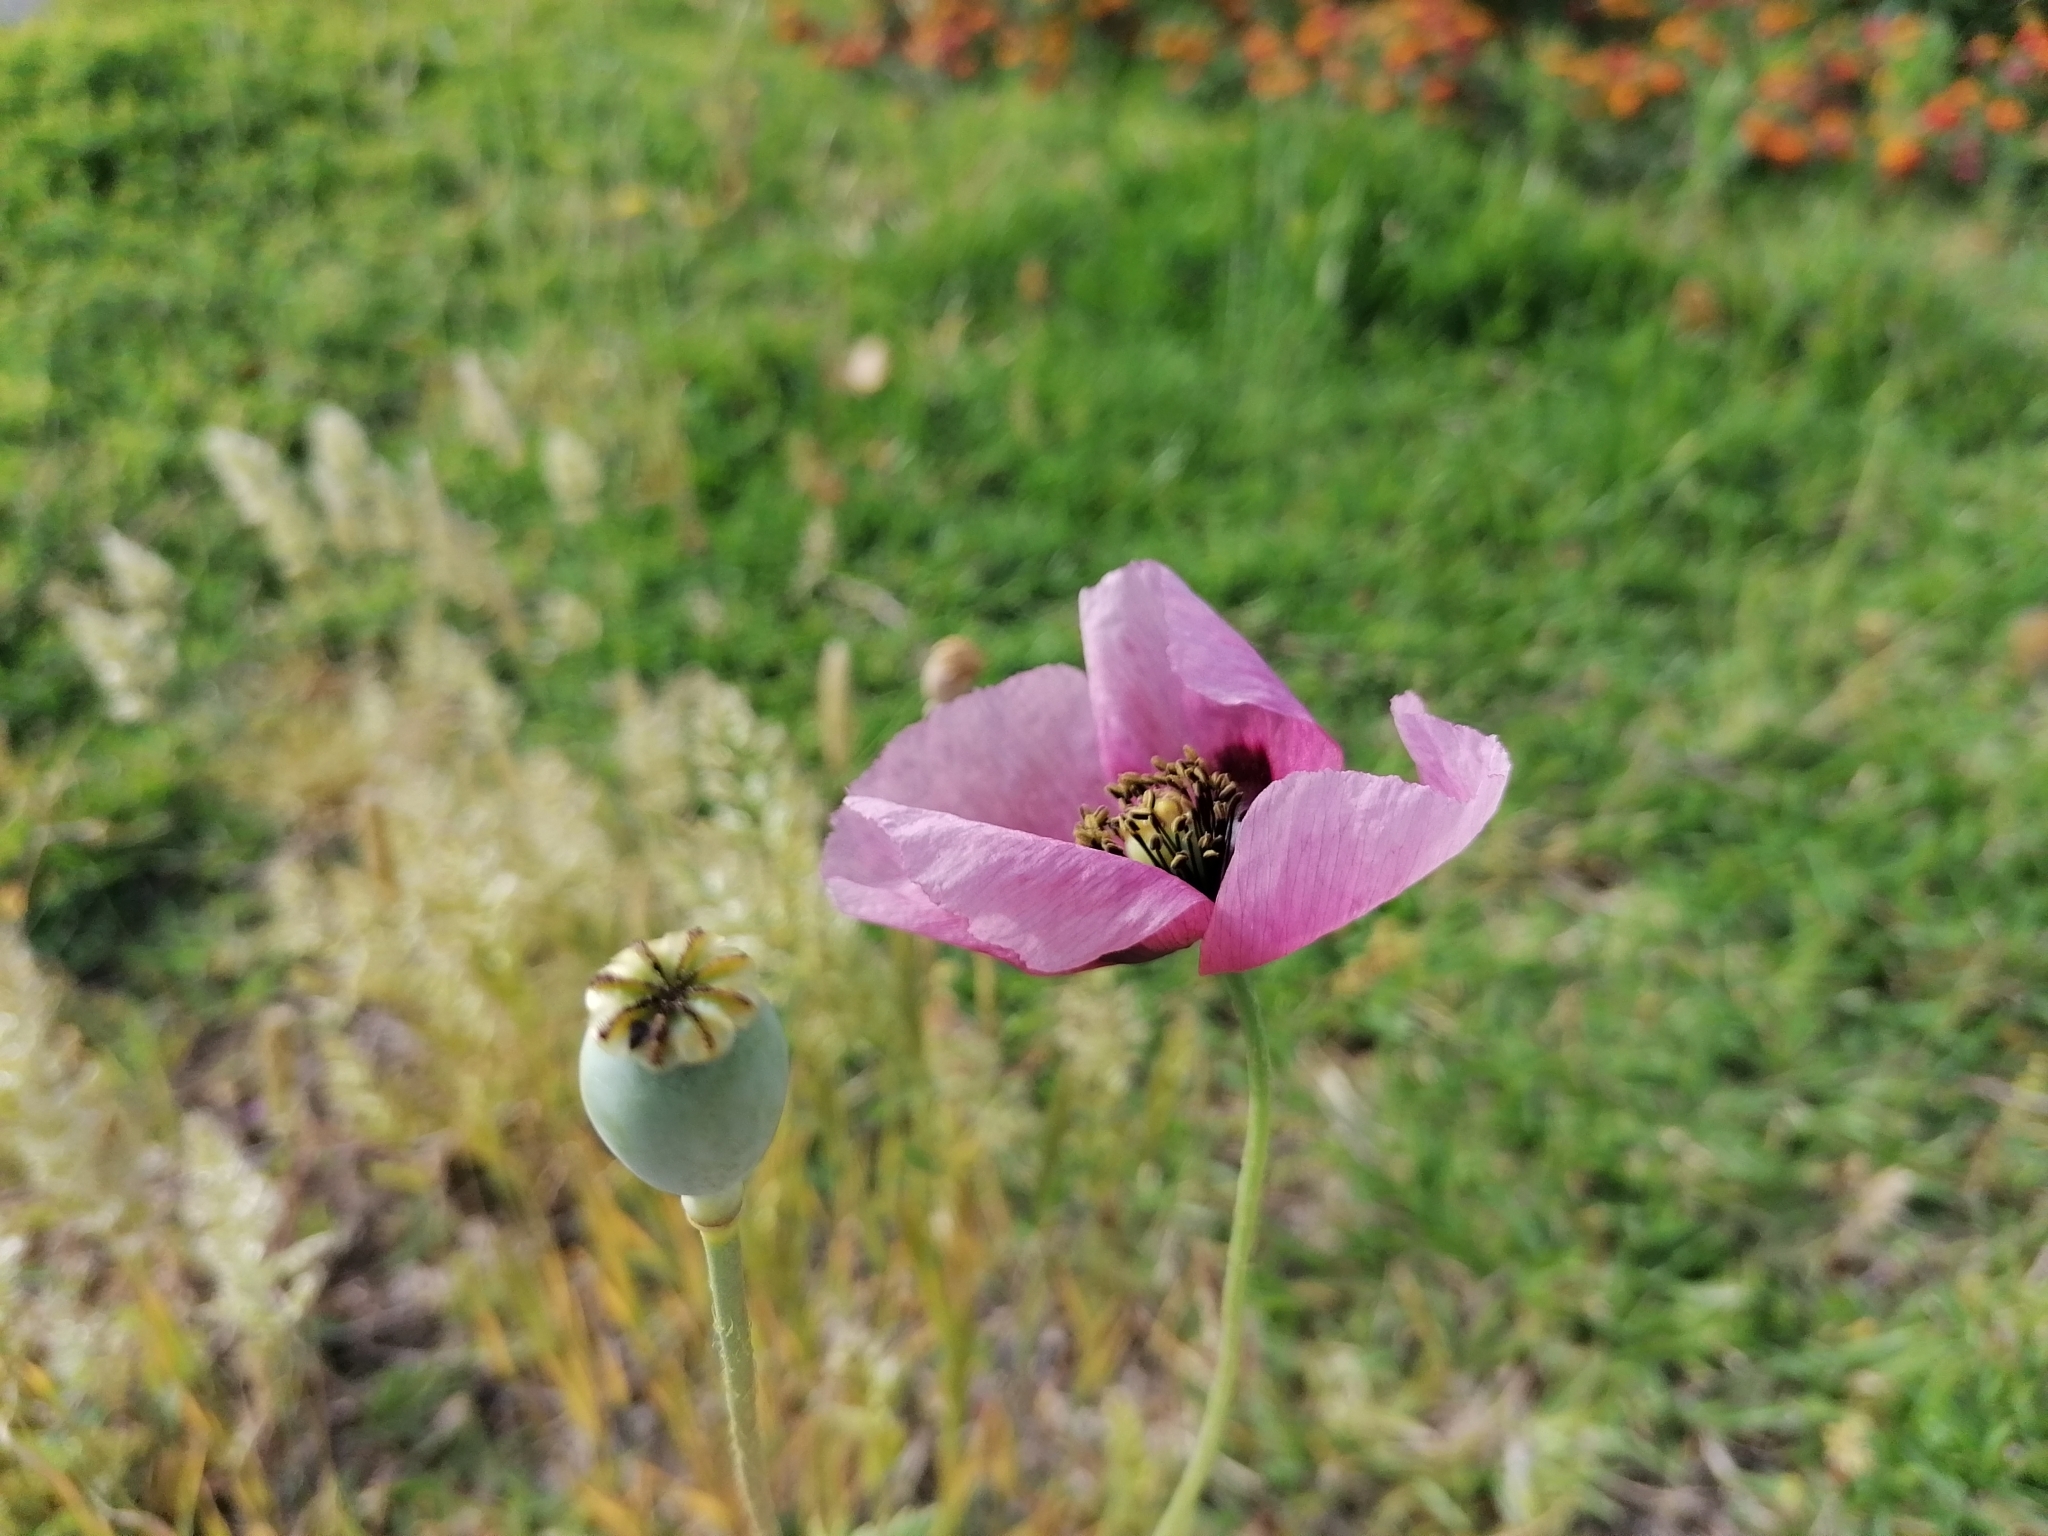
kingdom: Plantae
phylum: Tracheophyta
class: Magnoliopsida
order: Ranunculales
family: Papaveraceae
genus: Papaver
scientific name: Papaver setigerum
